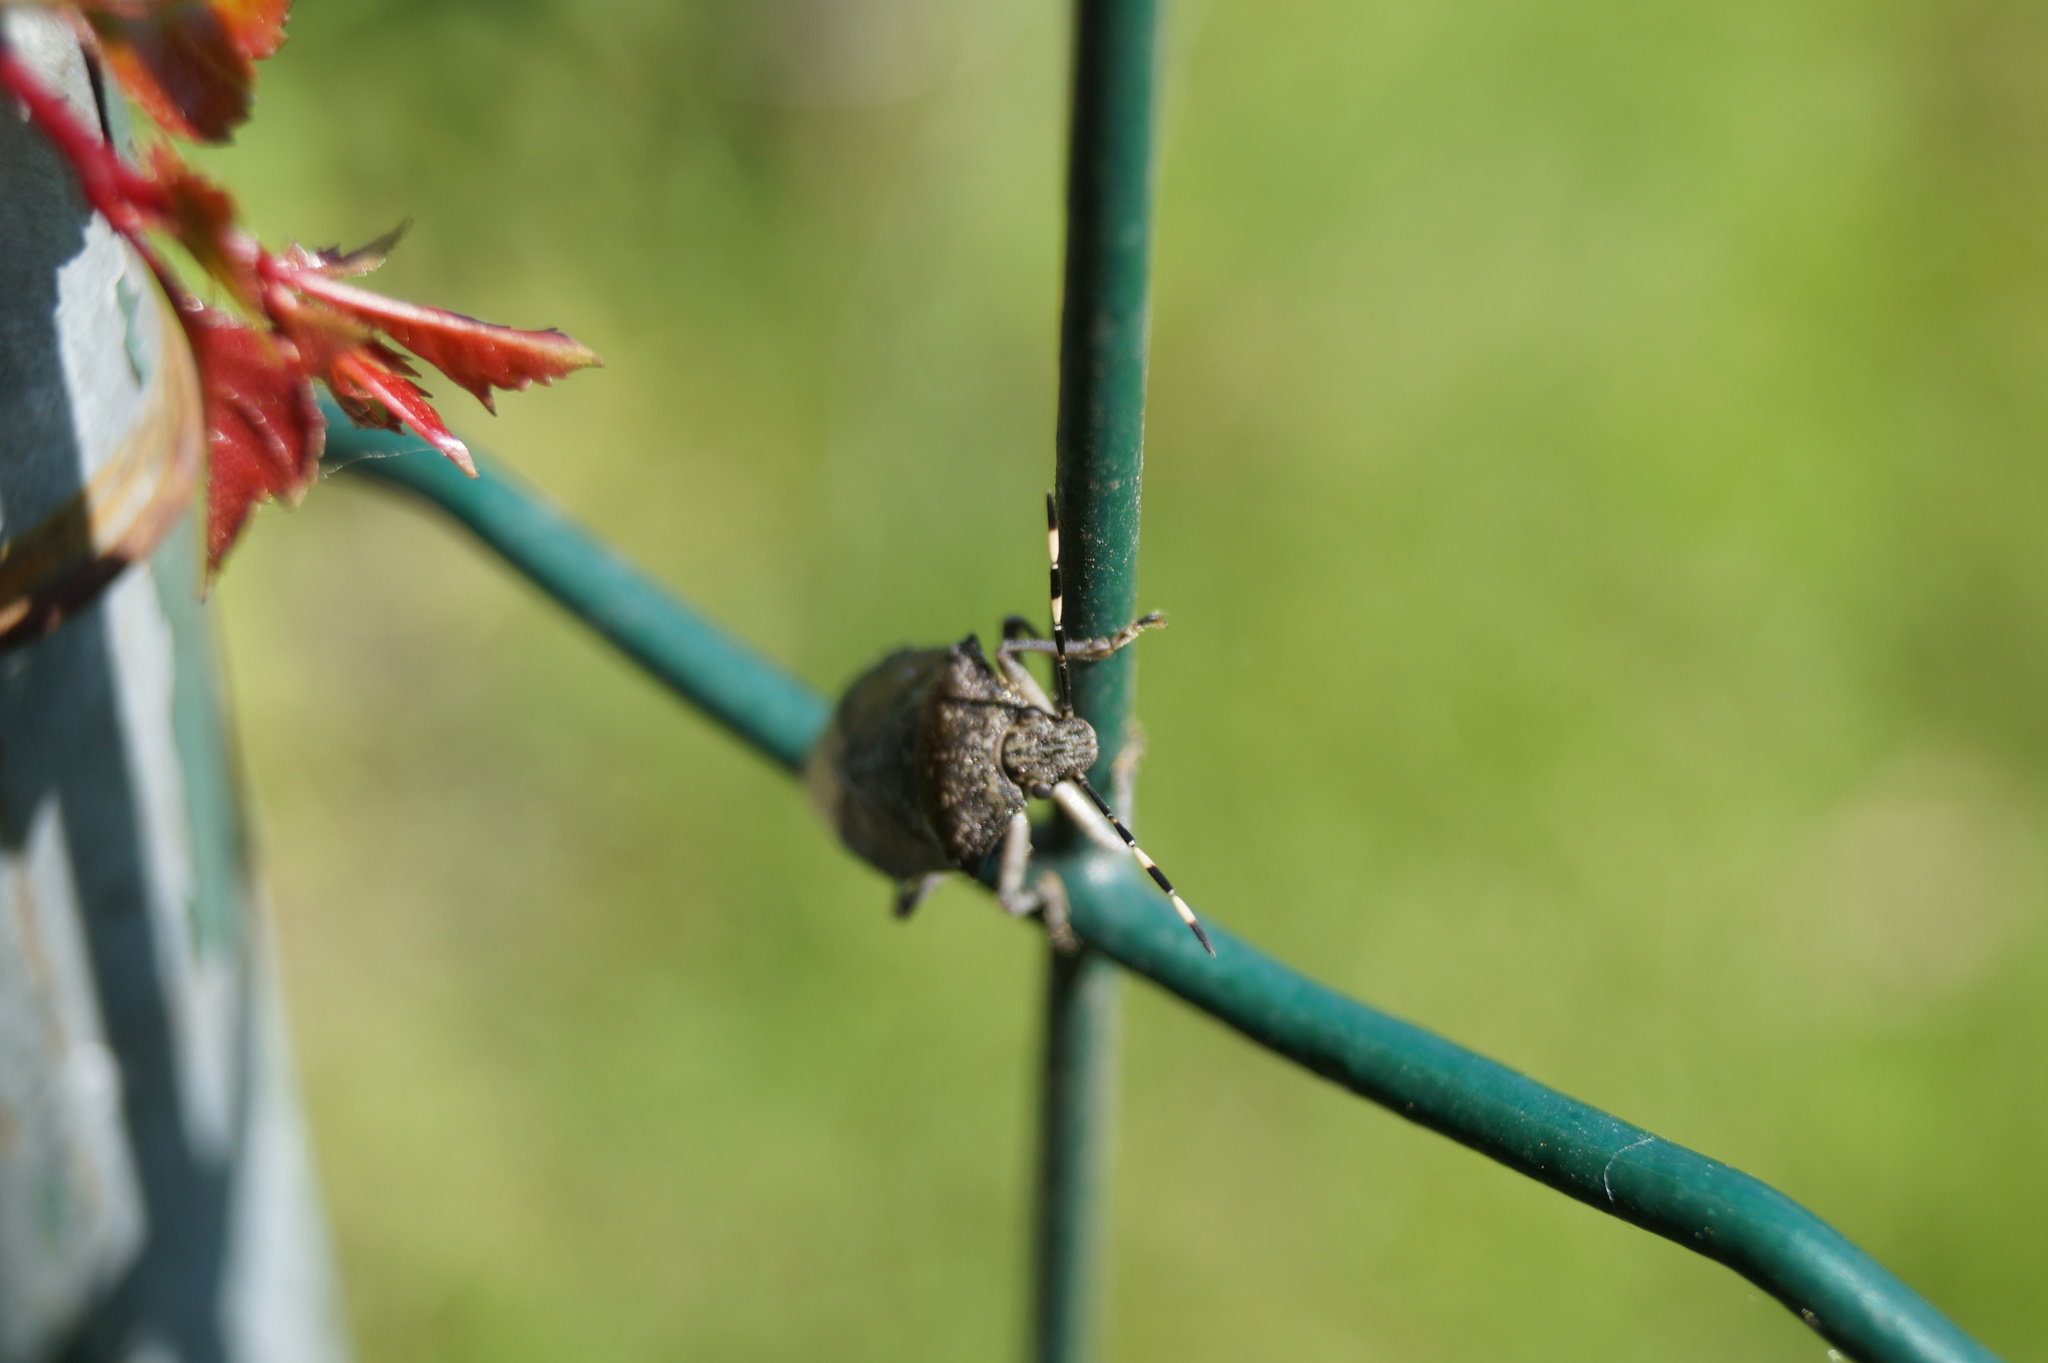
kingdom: Animalia
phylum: Arthropoda
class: Insecta
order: Hemiptera
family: Pentatomidae
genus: Rhaphigaster
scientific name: Rhaphigaster nebulosa
